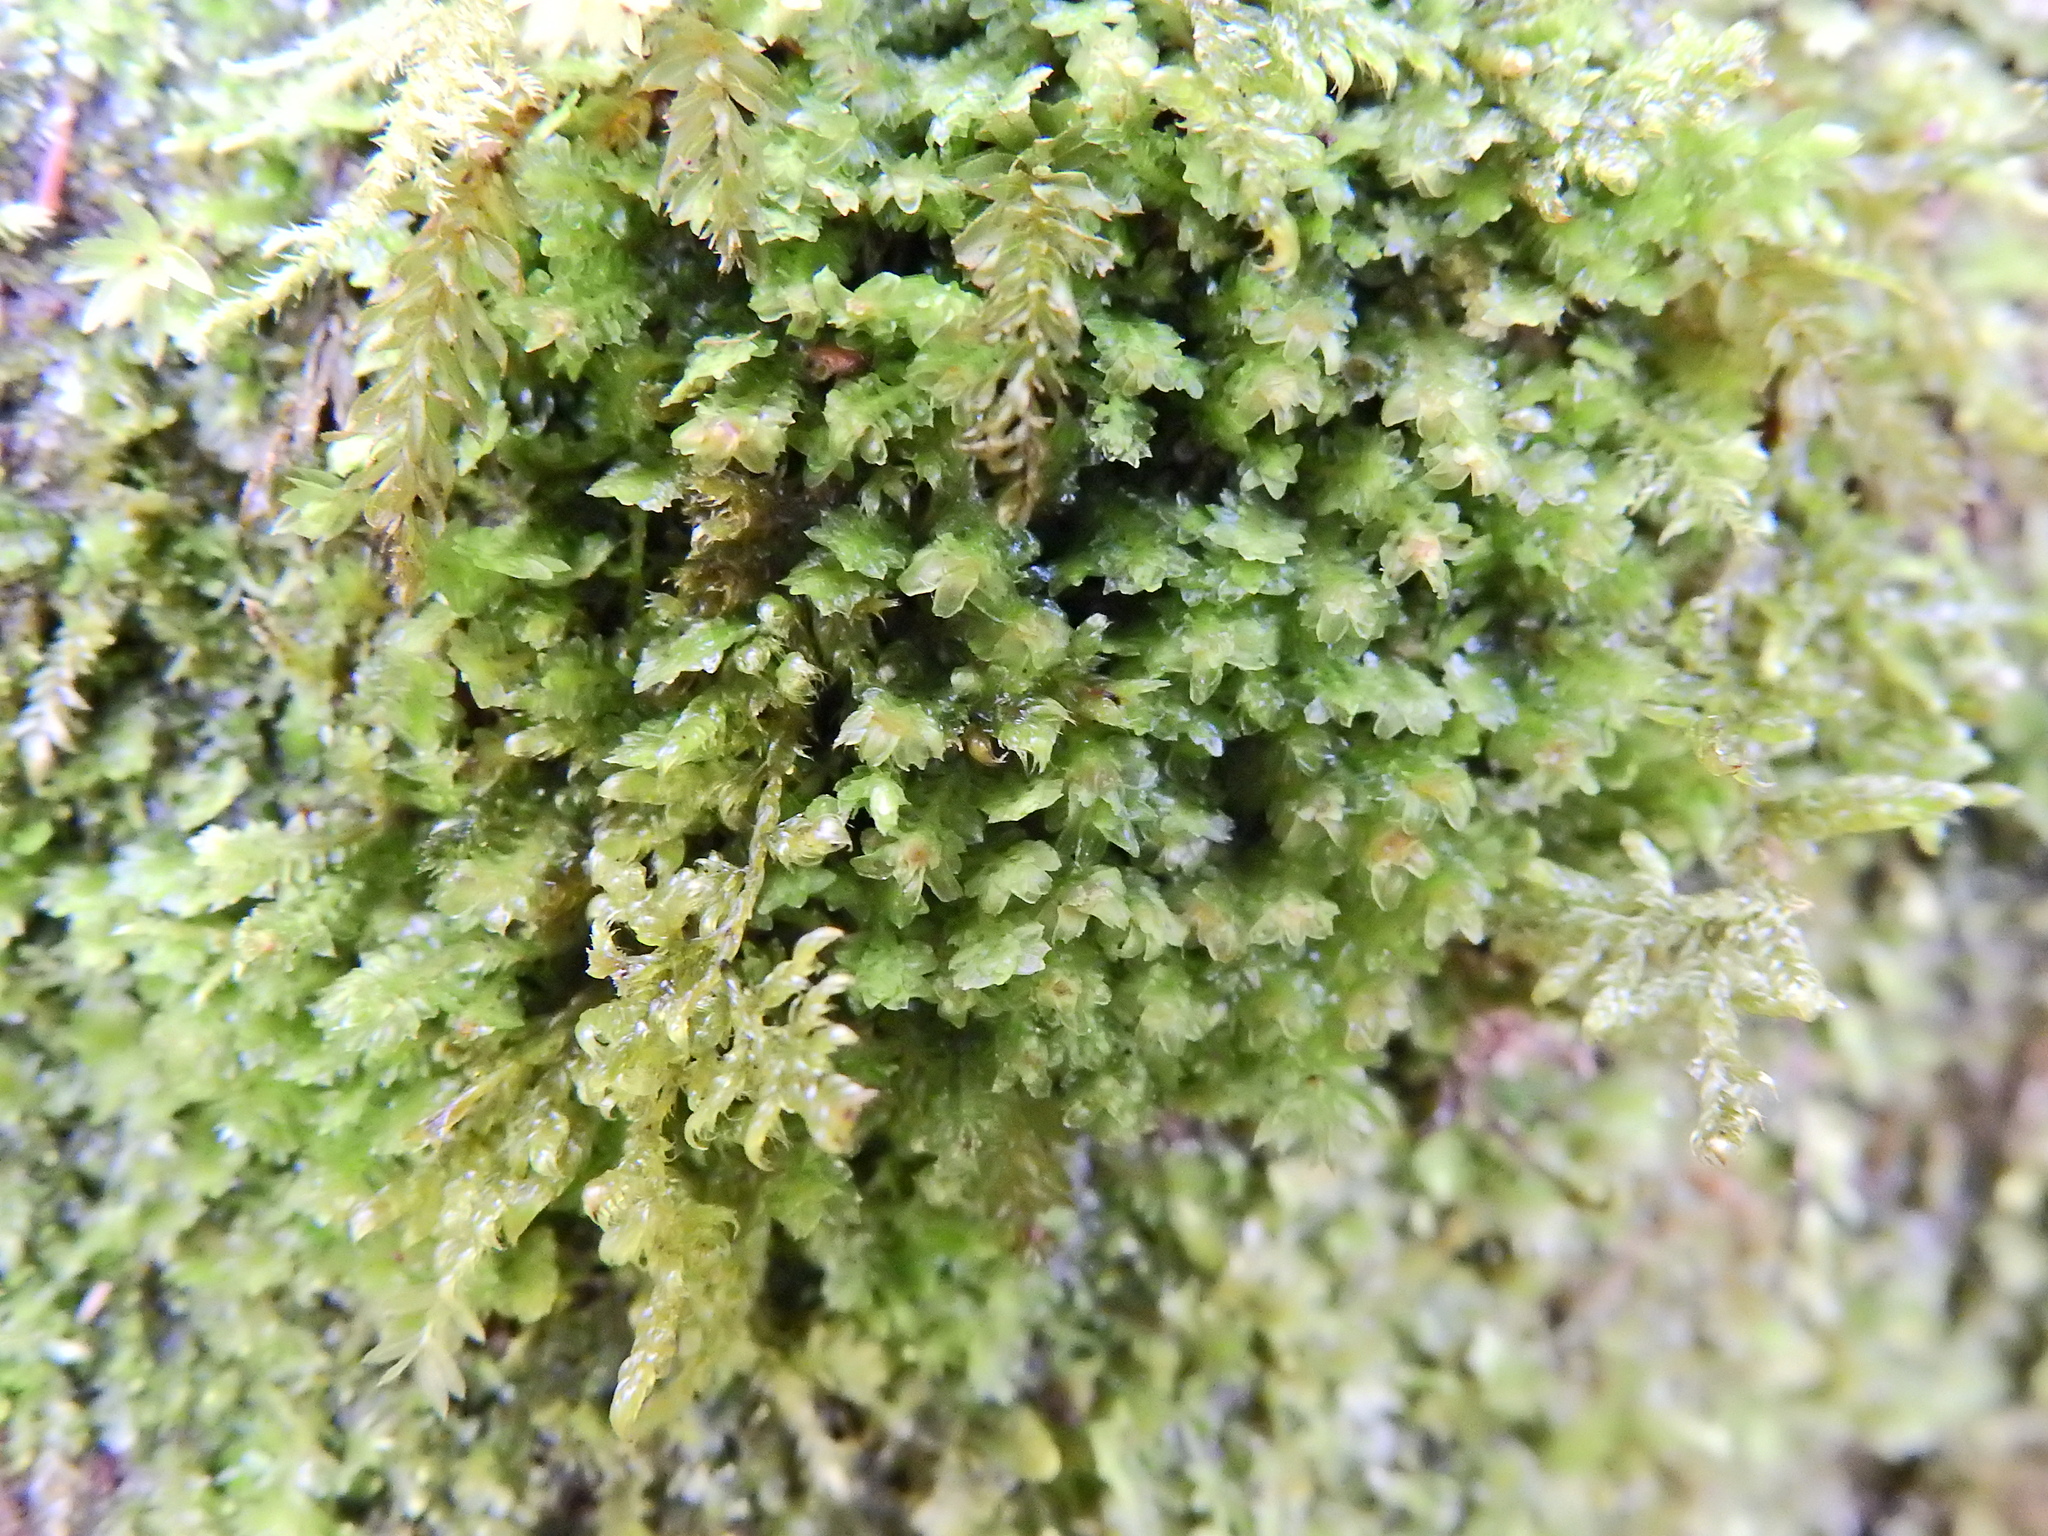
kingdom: Plantae
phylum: Marchantiophyta
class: Jungermanniopsida
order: Jungermanniales
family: Scapaniaceae
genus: Diplophyllum
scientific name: Diplophyllum albicans
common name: White earwort
